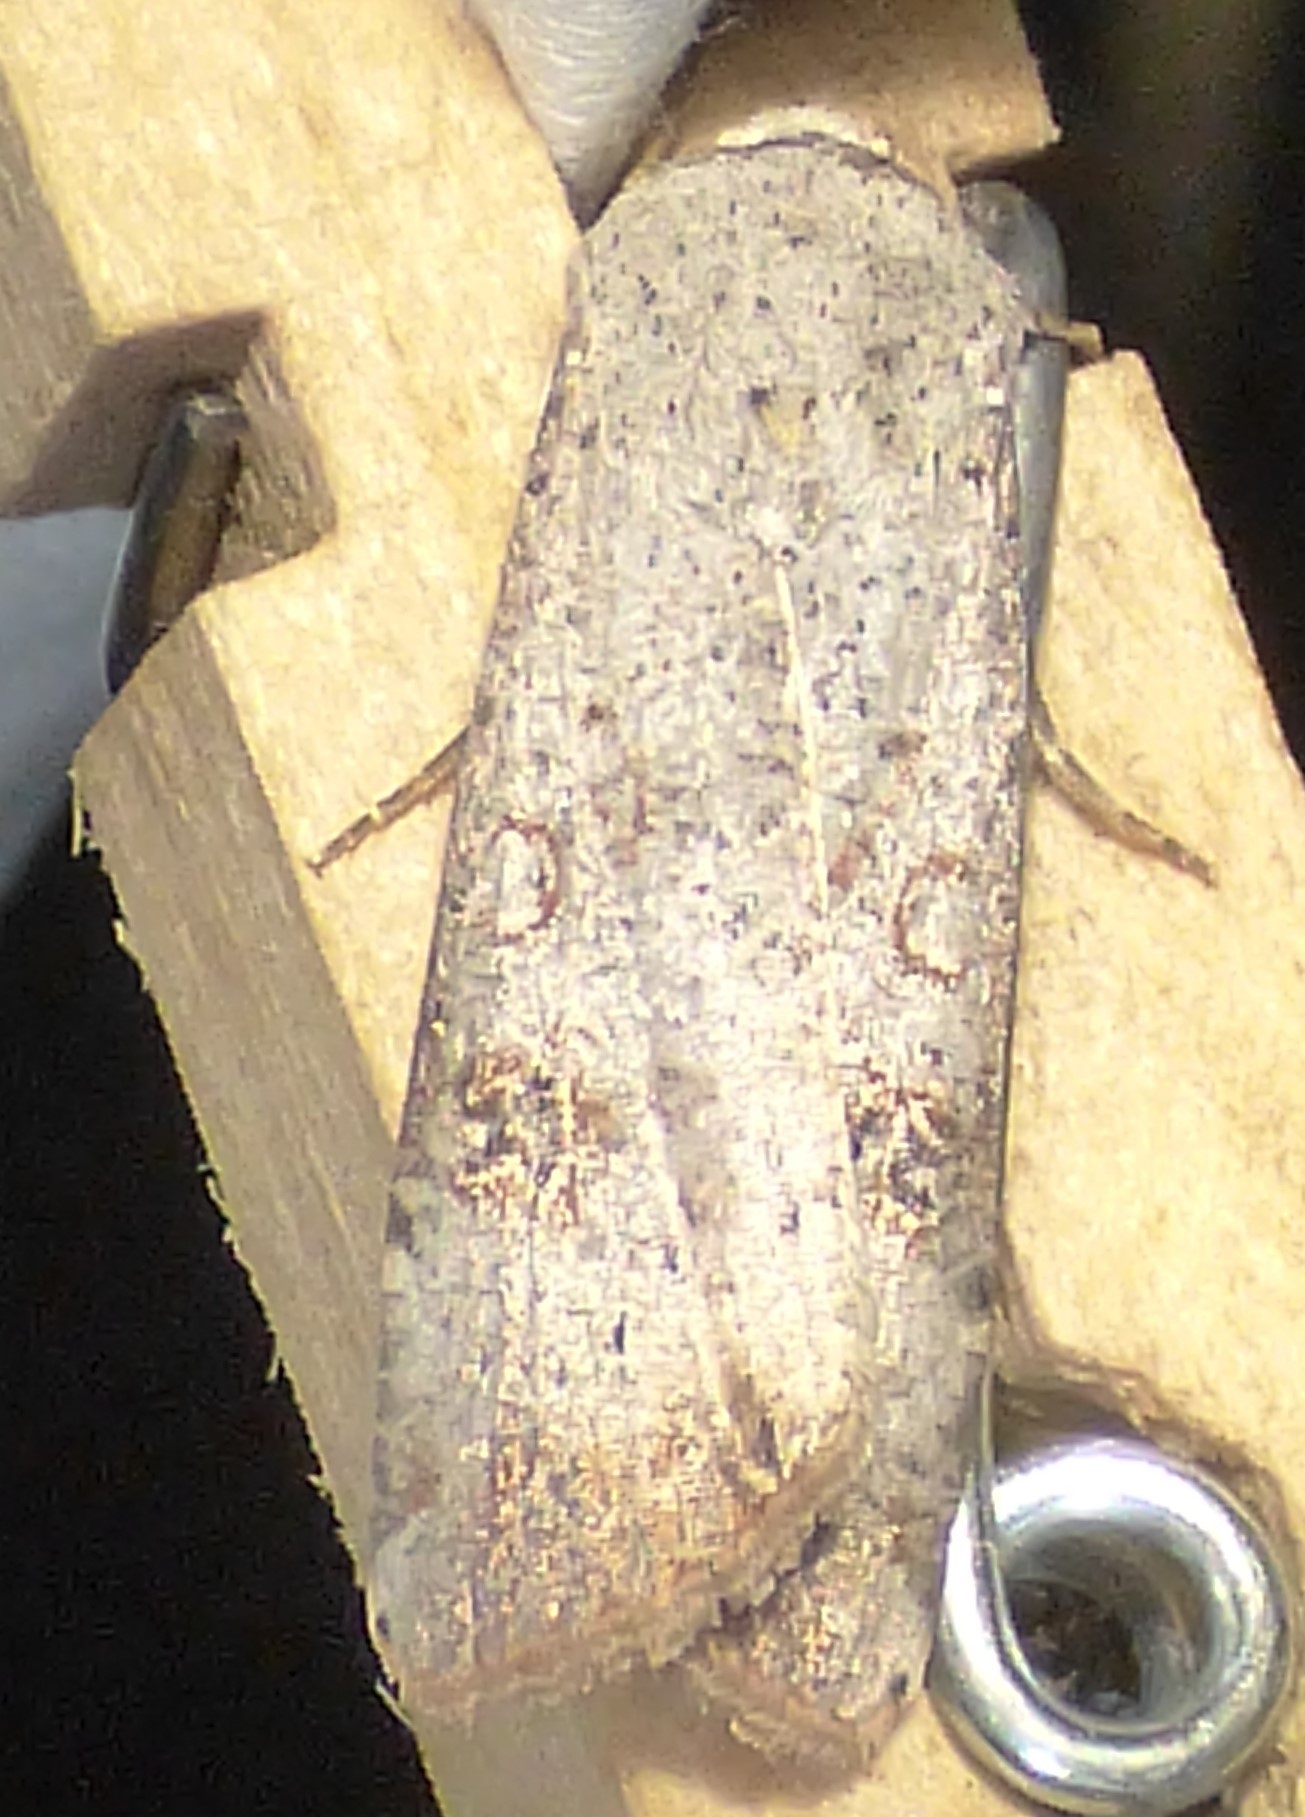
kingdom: Animalia
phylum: Arthropoda
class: Insecta
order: Lepidoptera
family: Noctuidae
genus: Anicla
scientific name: Anicla infecta
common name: Green cutworm
